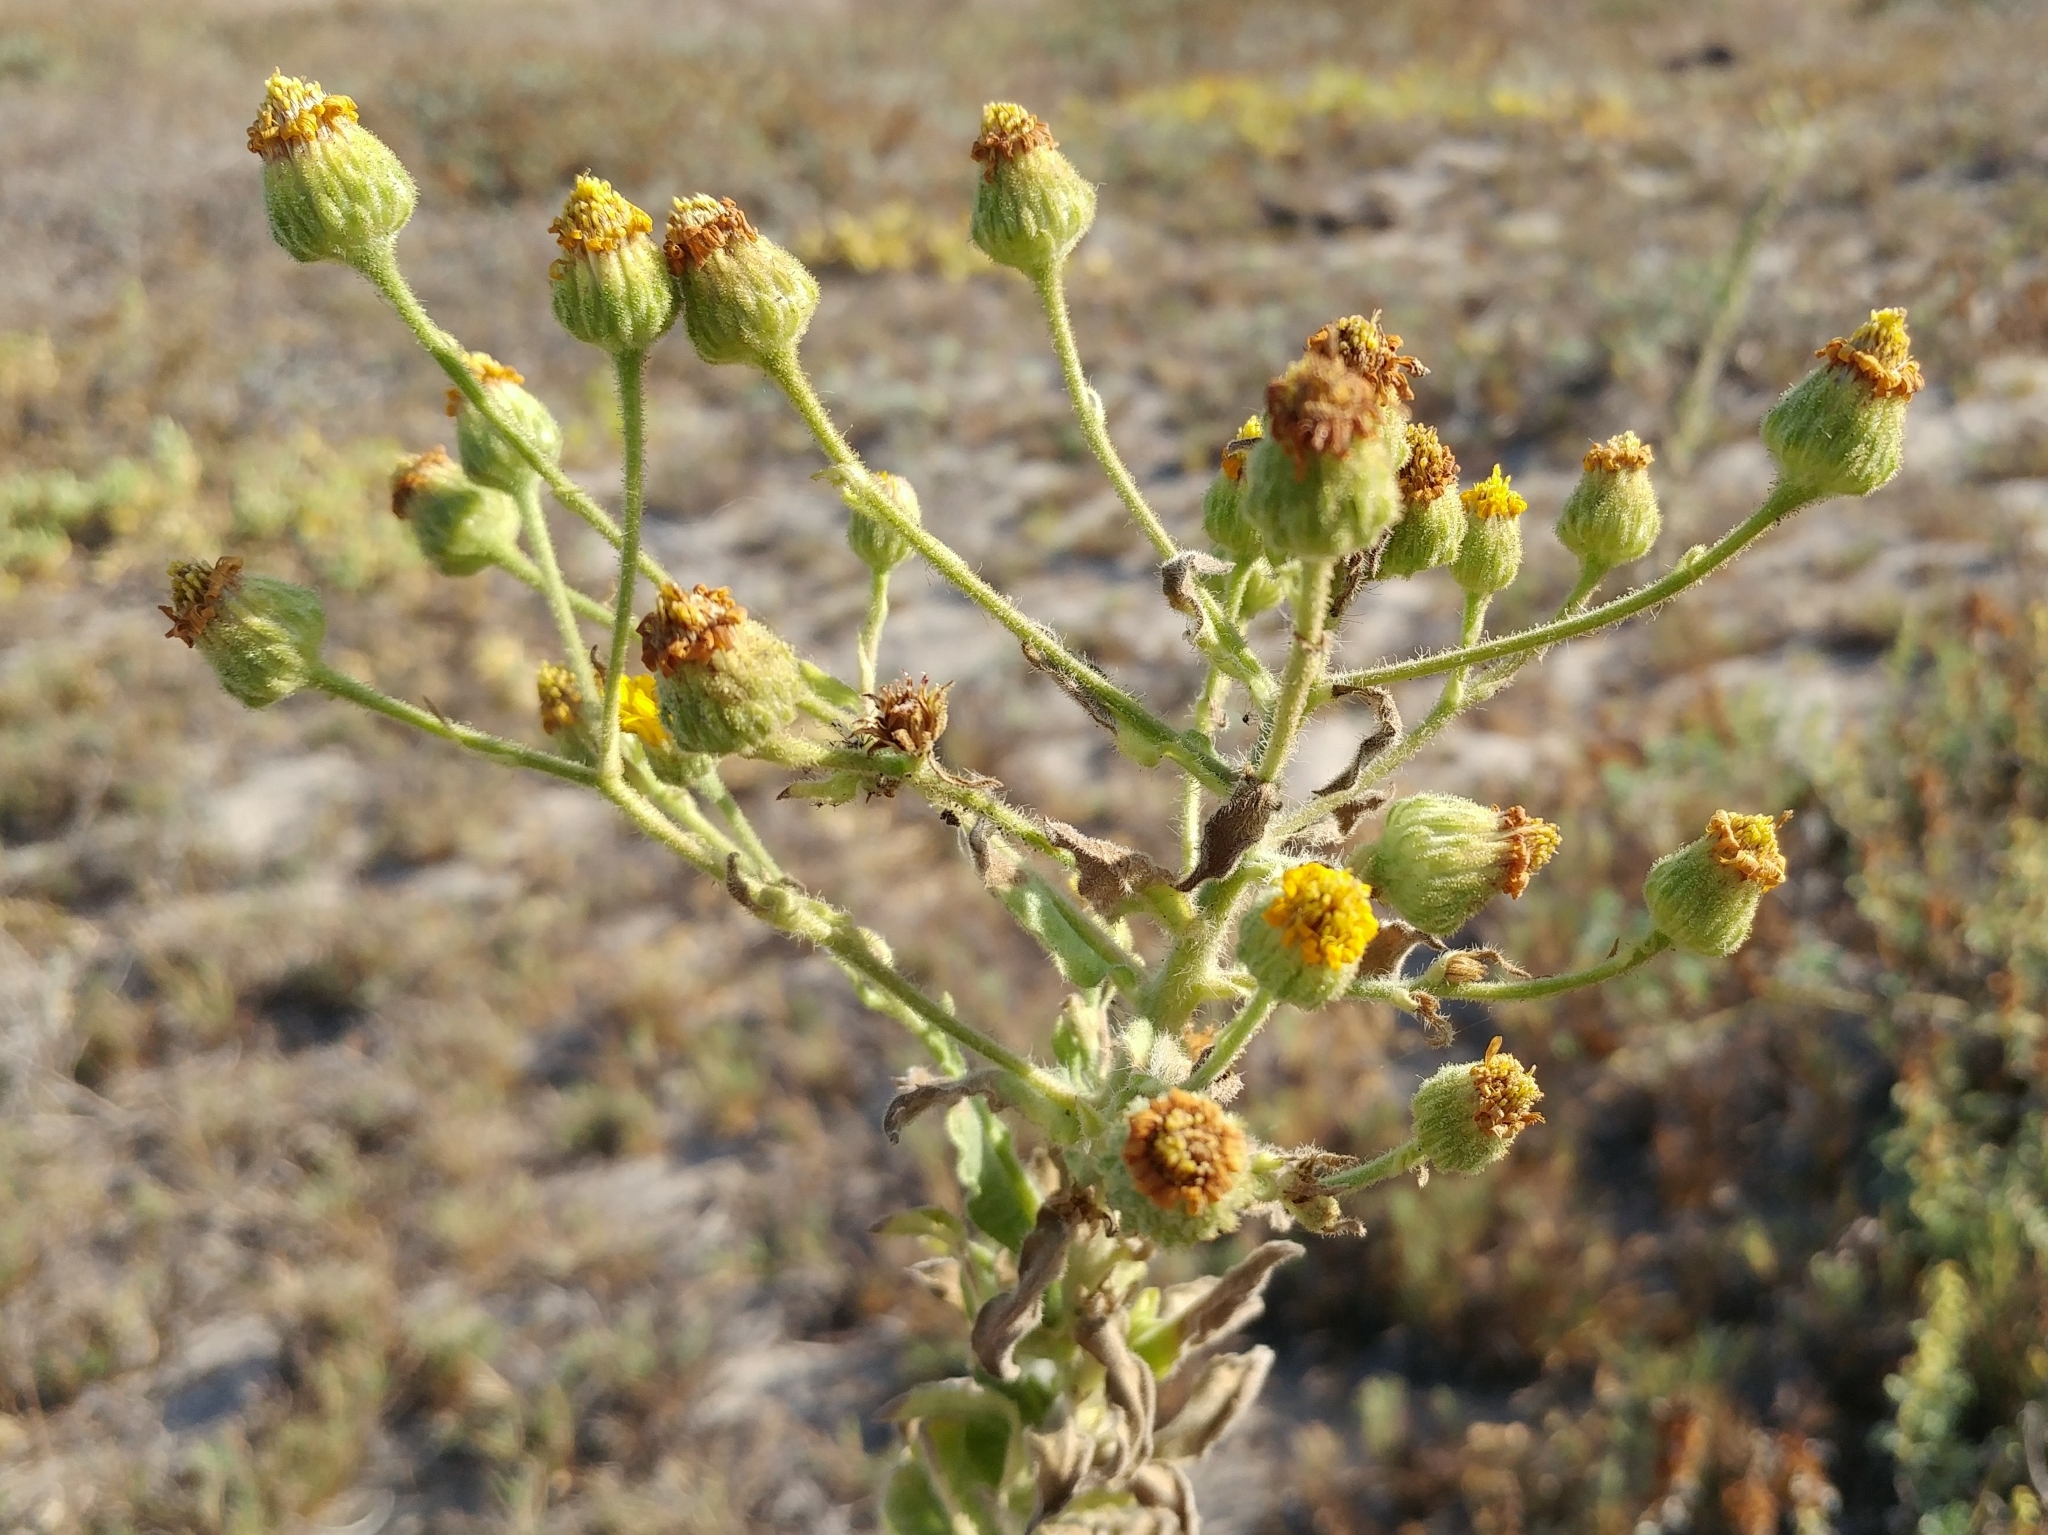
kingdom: Plantae
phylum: Tracheophyta
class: Magnoliopsida
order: Asterales
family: Asteraceae
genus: Heterotheca
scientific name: Heterotheca grandiflora
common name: Telegraphweed
